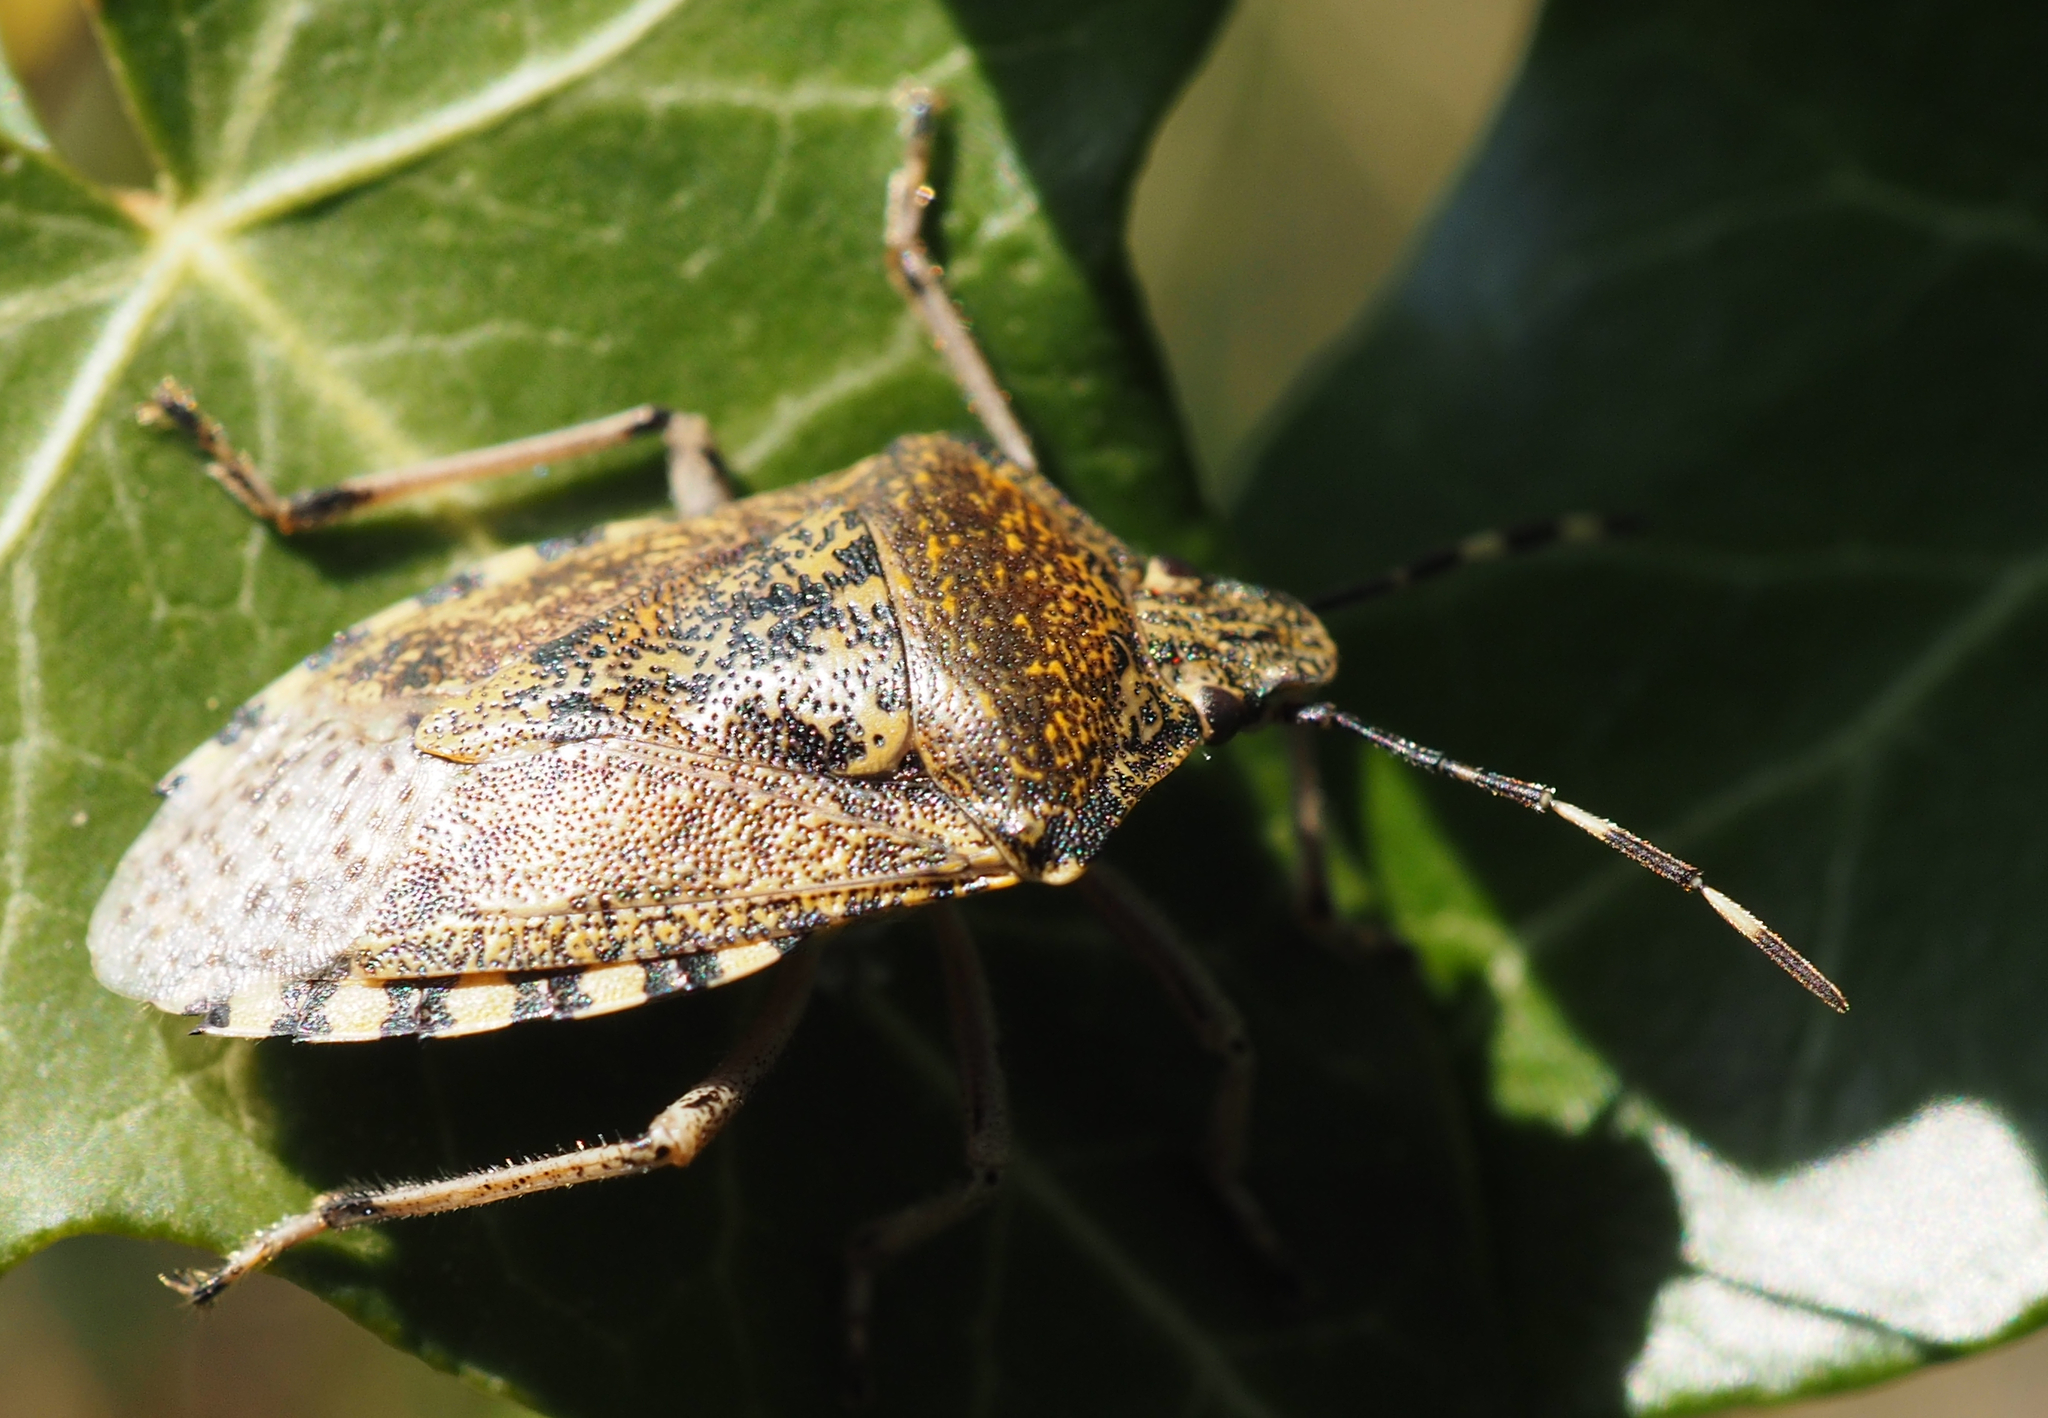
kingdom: Animalia
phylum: Arthropoda
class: Insecta
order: Hemiptera
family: Pentatomidae
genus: Rhaphigaster
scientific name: Rhaphigaster nebulosa
